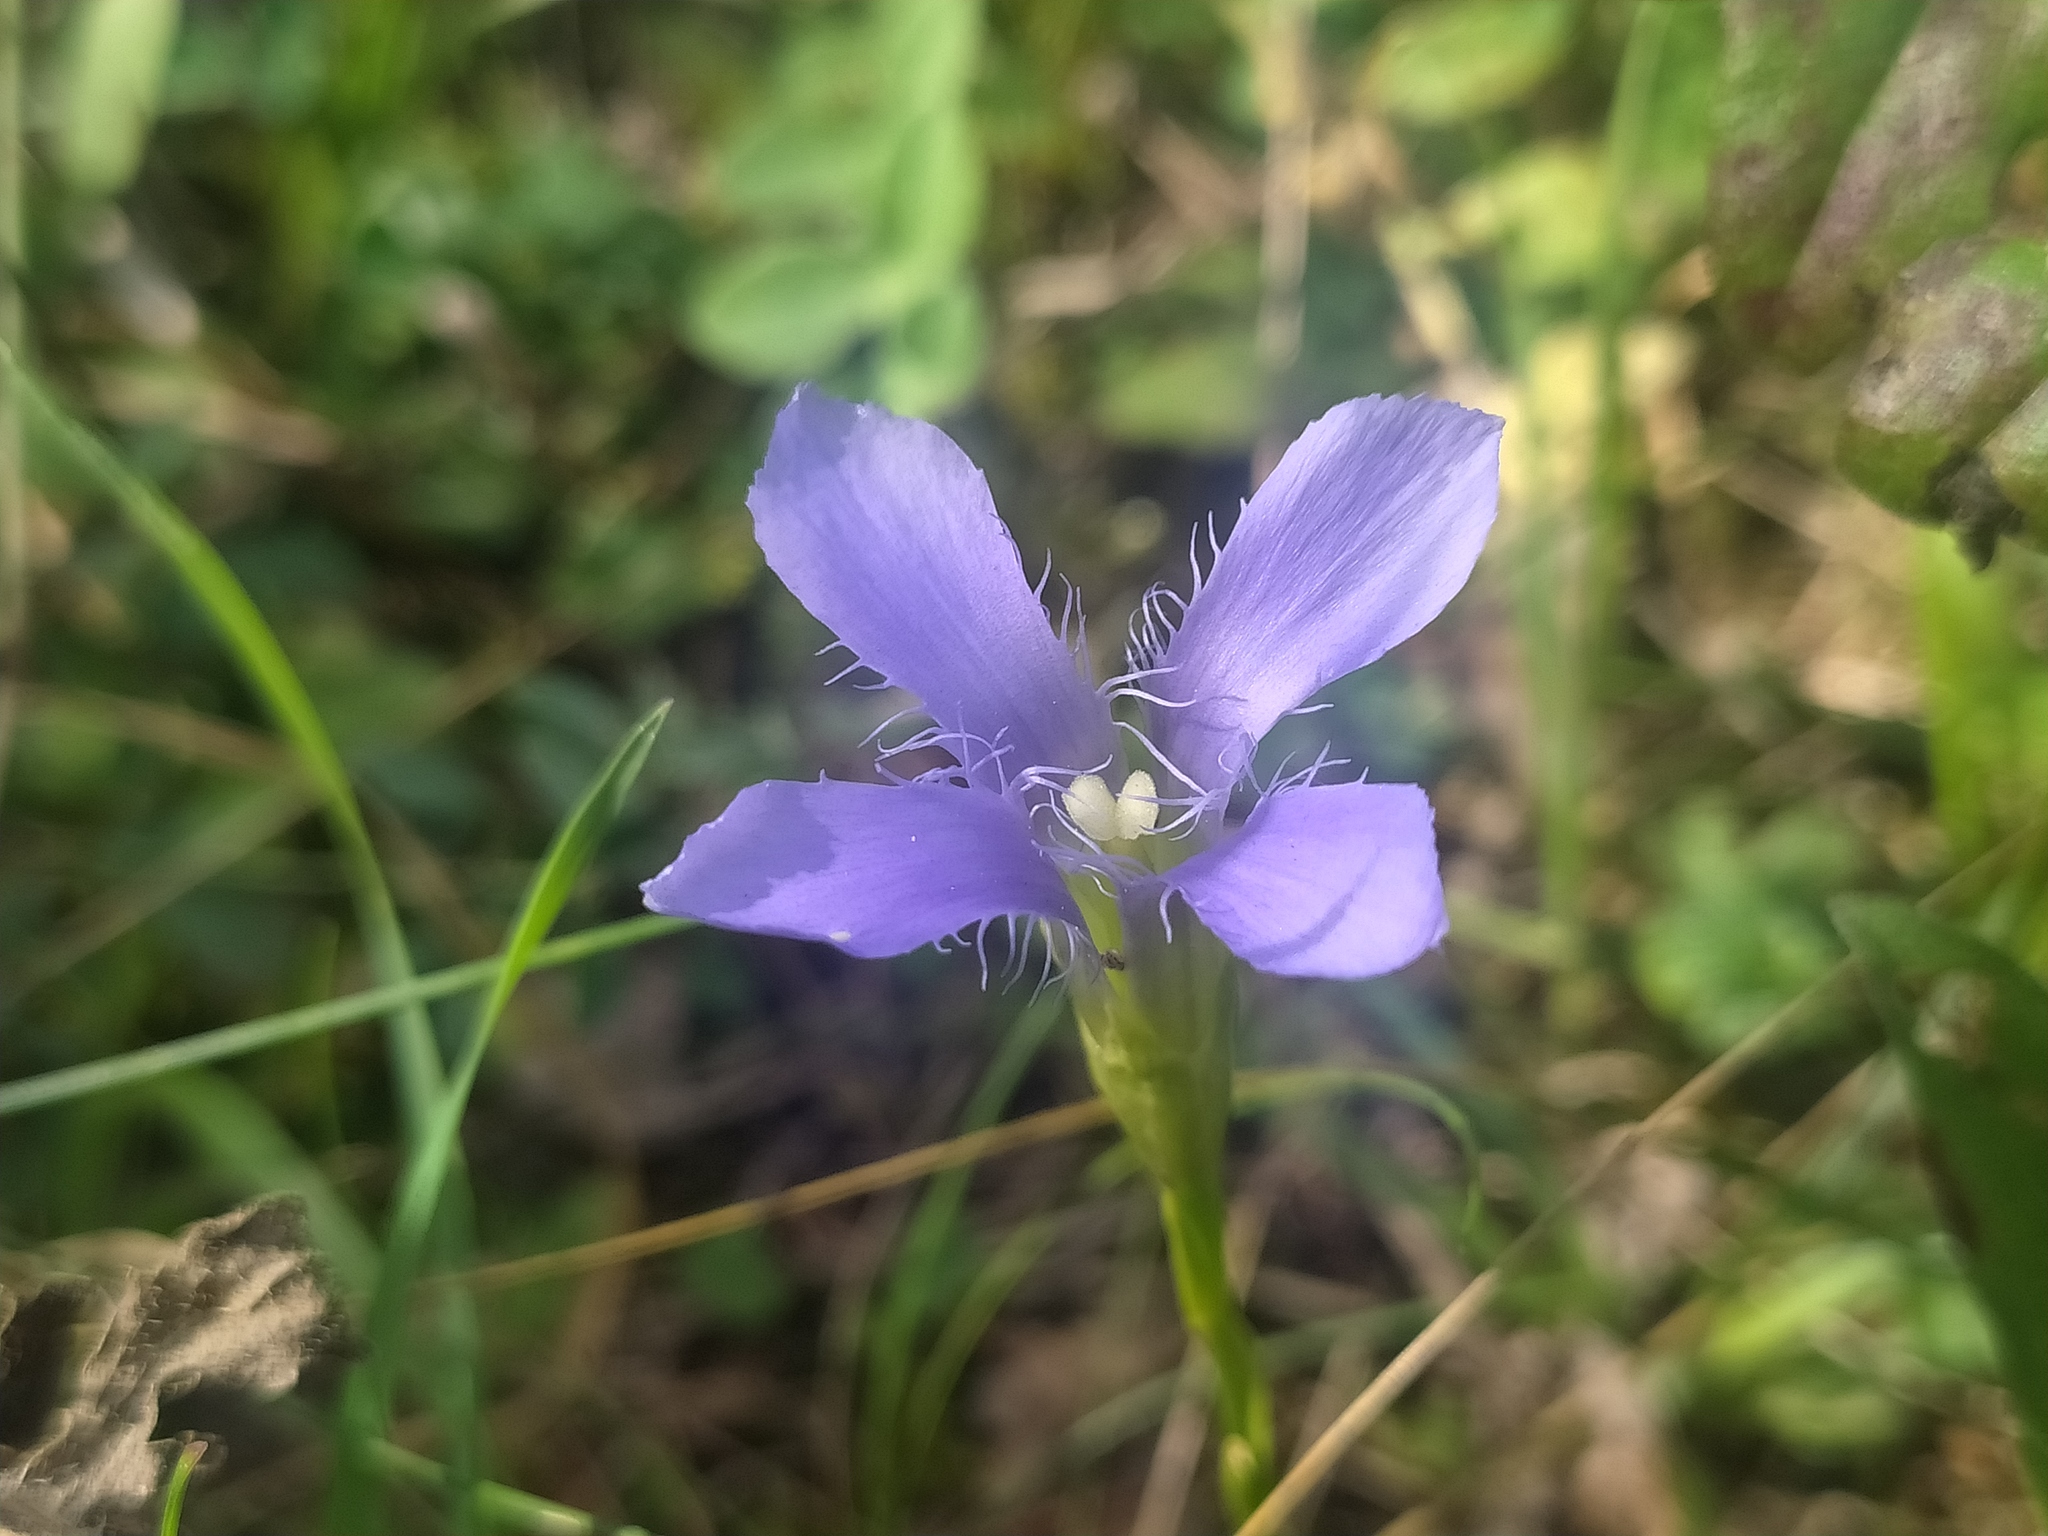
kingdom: Plantae
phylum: Tracheophyta
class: Magnoliopsida
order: Gentianales
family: Gentianaceae
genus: Gentianopsis
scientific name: Gentianopsis ciliata
